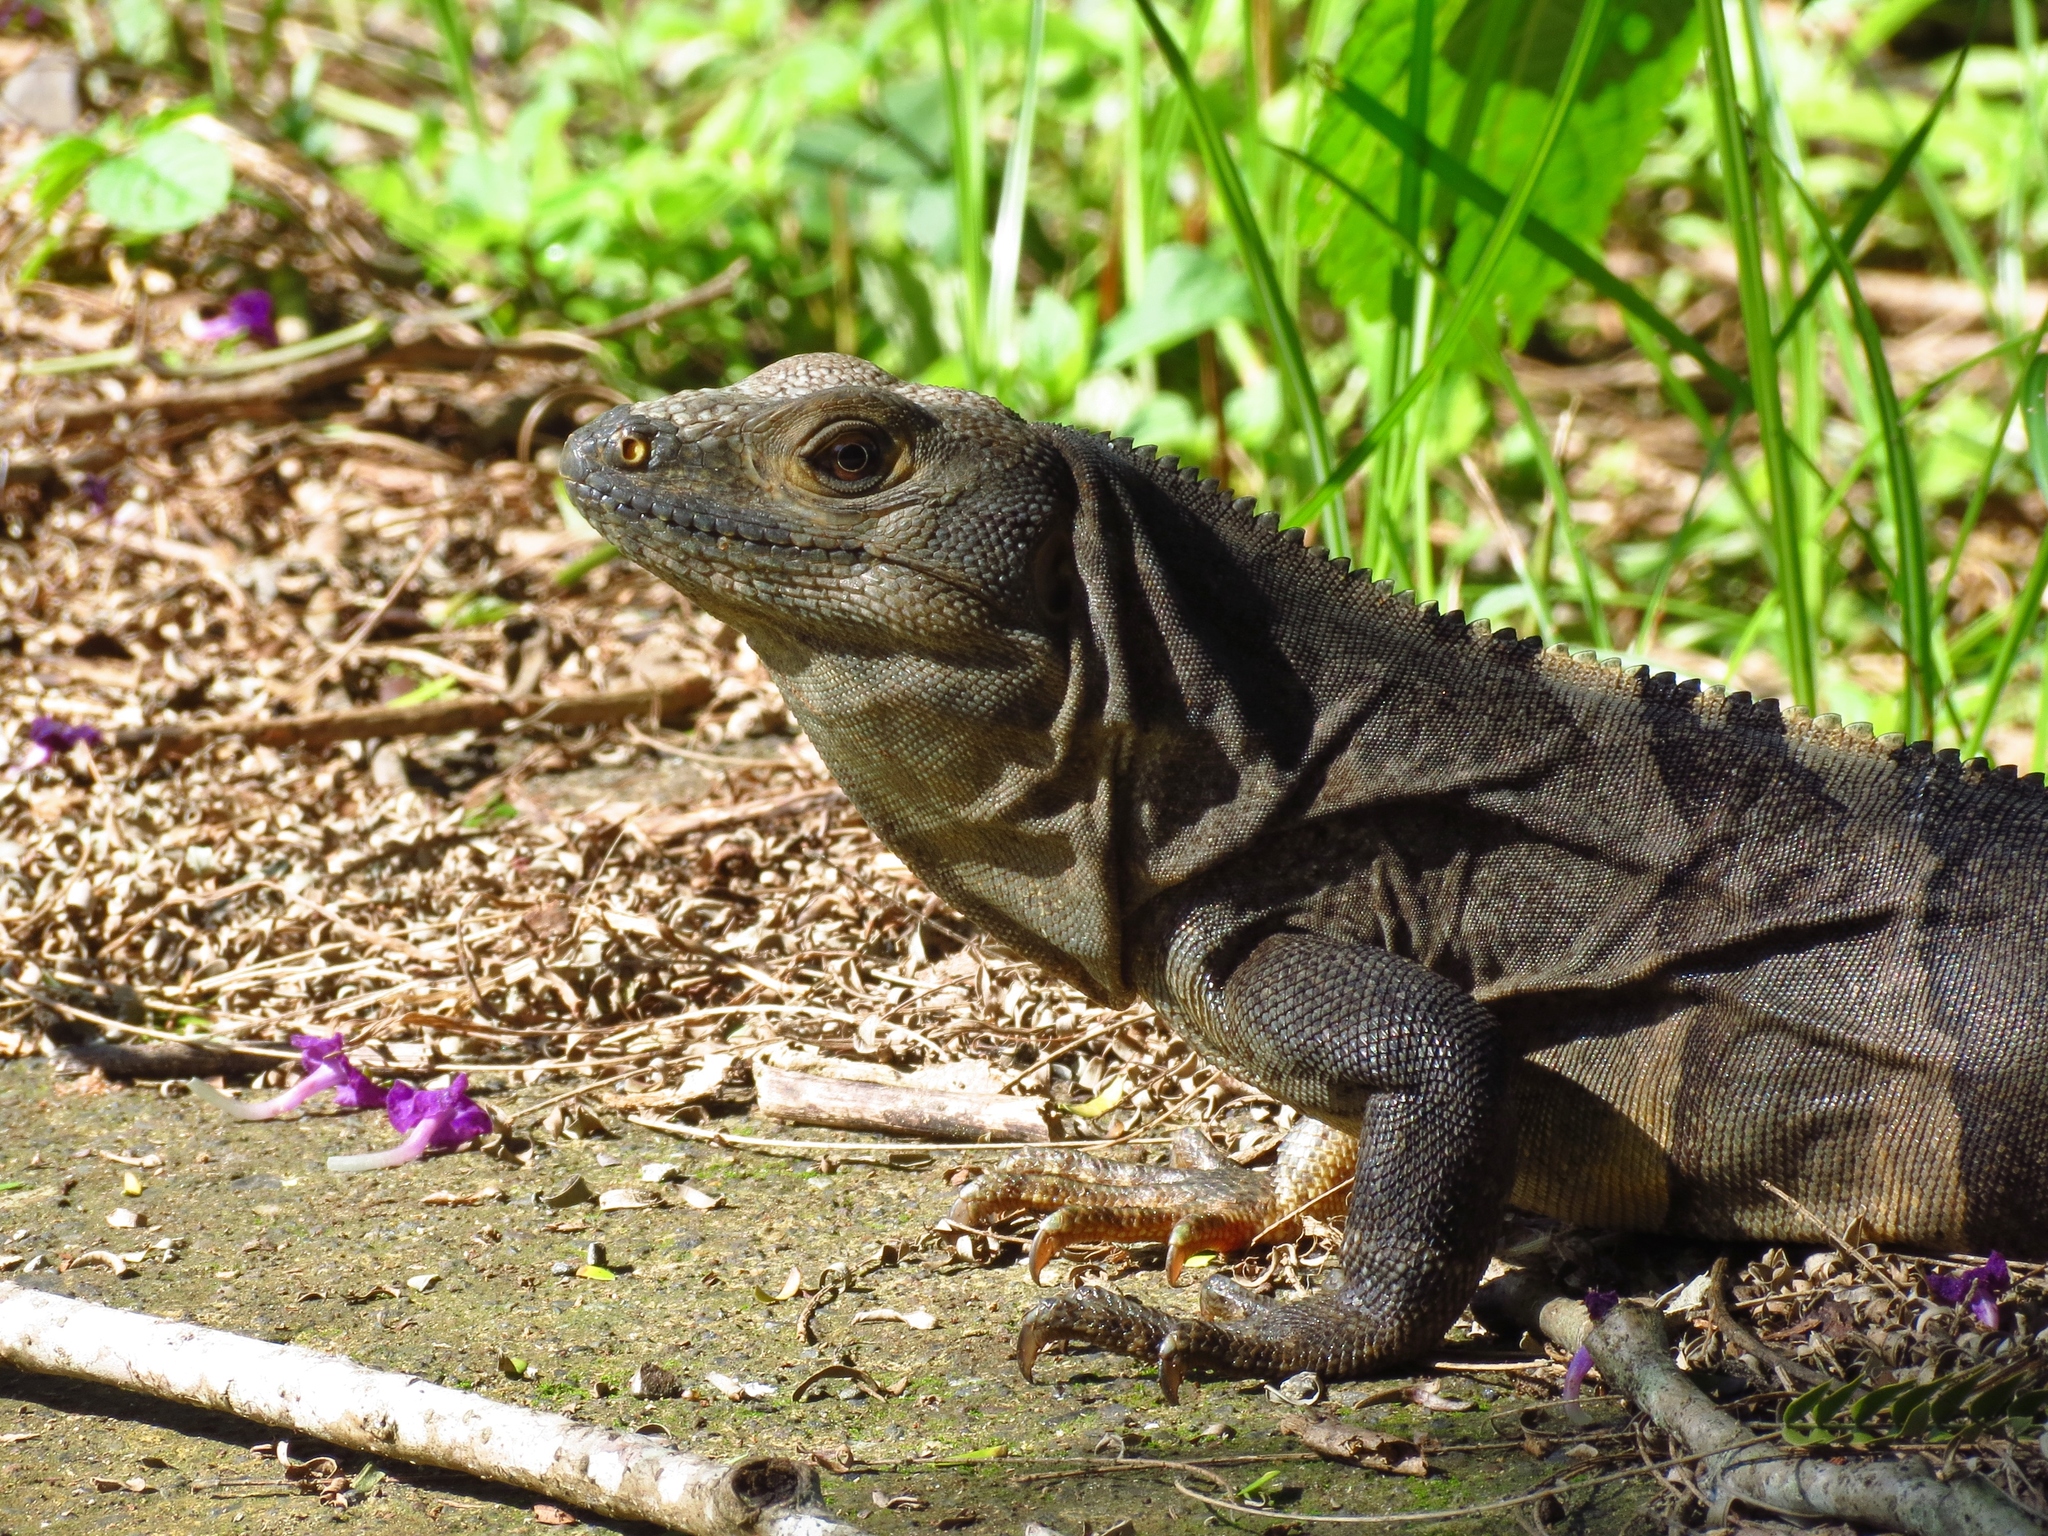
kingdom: Animalia
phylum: Chordata
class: Squamata
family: Iguanidae
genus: Ctenosaura
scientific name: Ctenosaura similis
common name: Black spiny-tailed iguana
